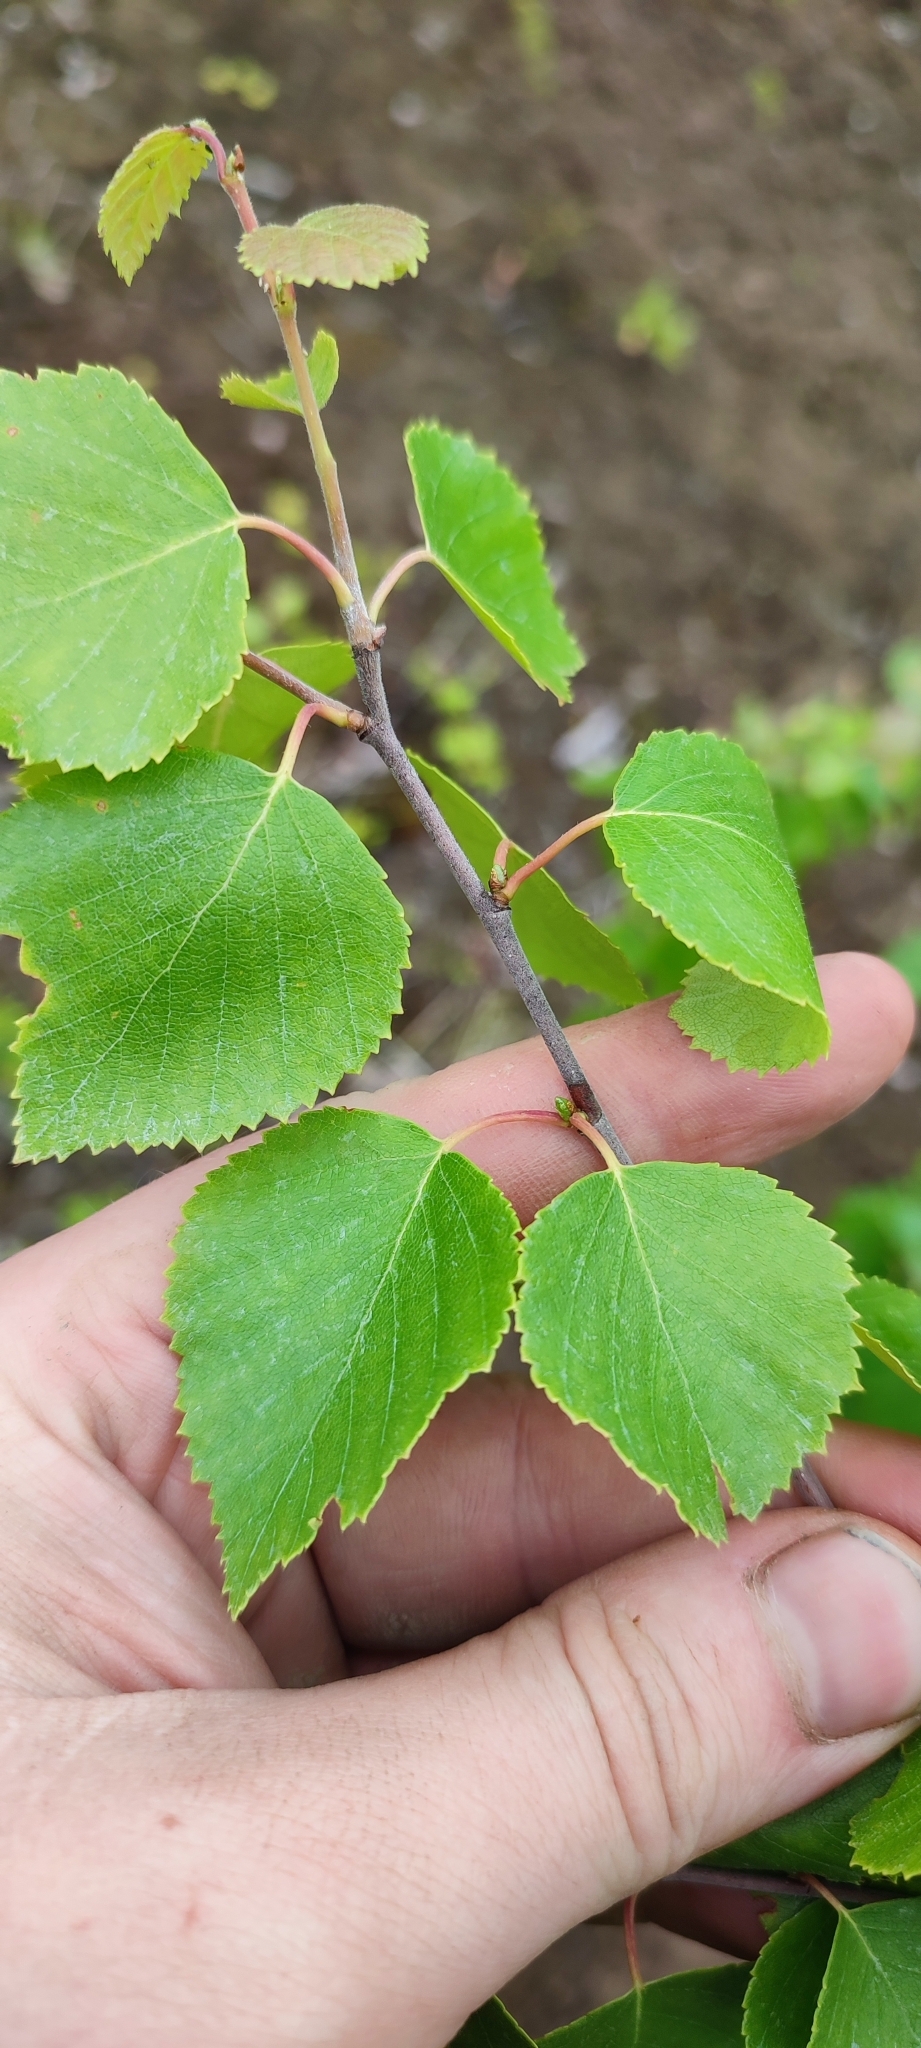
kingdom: Plantae
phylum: Tracheophyta
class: Magnoliopsida
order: Fagales
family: Betulaceae
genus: Betula
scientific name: Betula pubescens
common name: Downy birch
